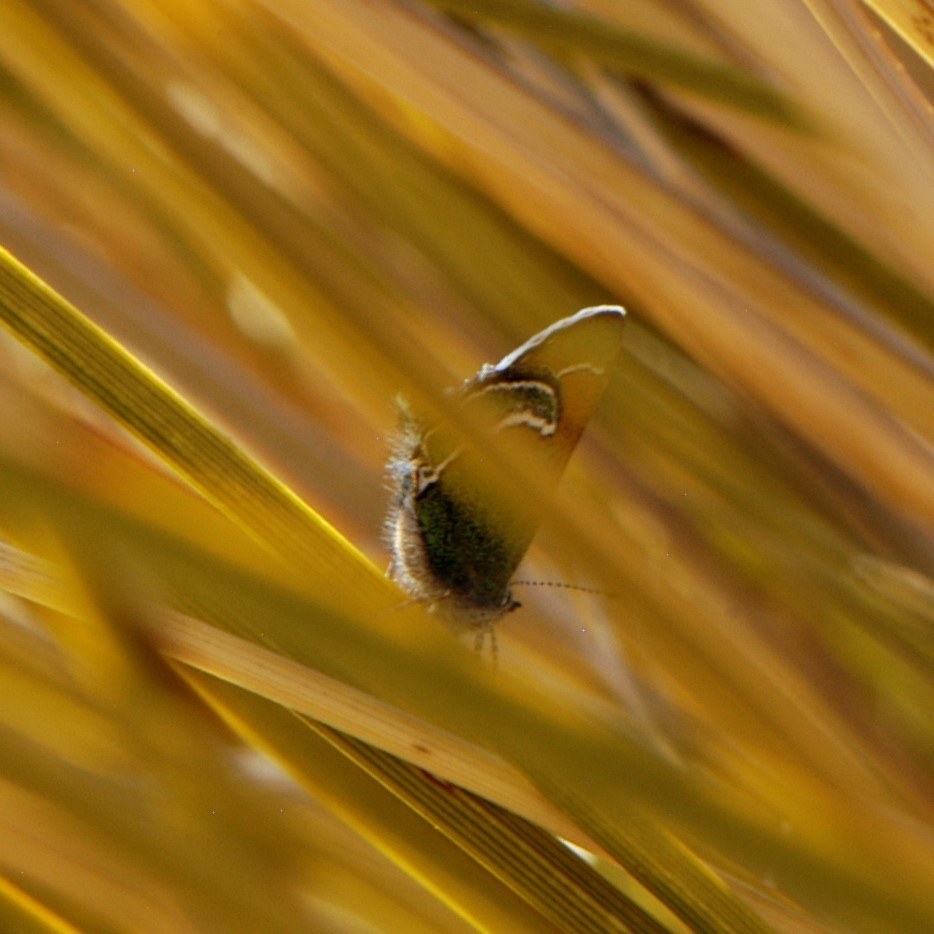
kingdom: Animalia
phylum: Arthropoda
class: Insecta
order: Lepidoptera
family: Lycaenidae
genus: Sandia
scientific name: Sandia mcfarlandi
